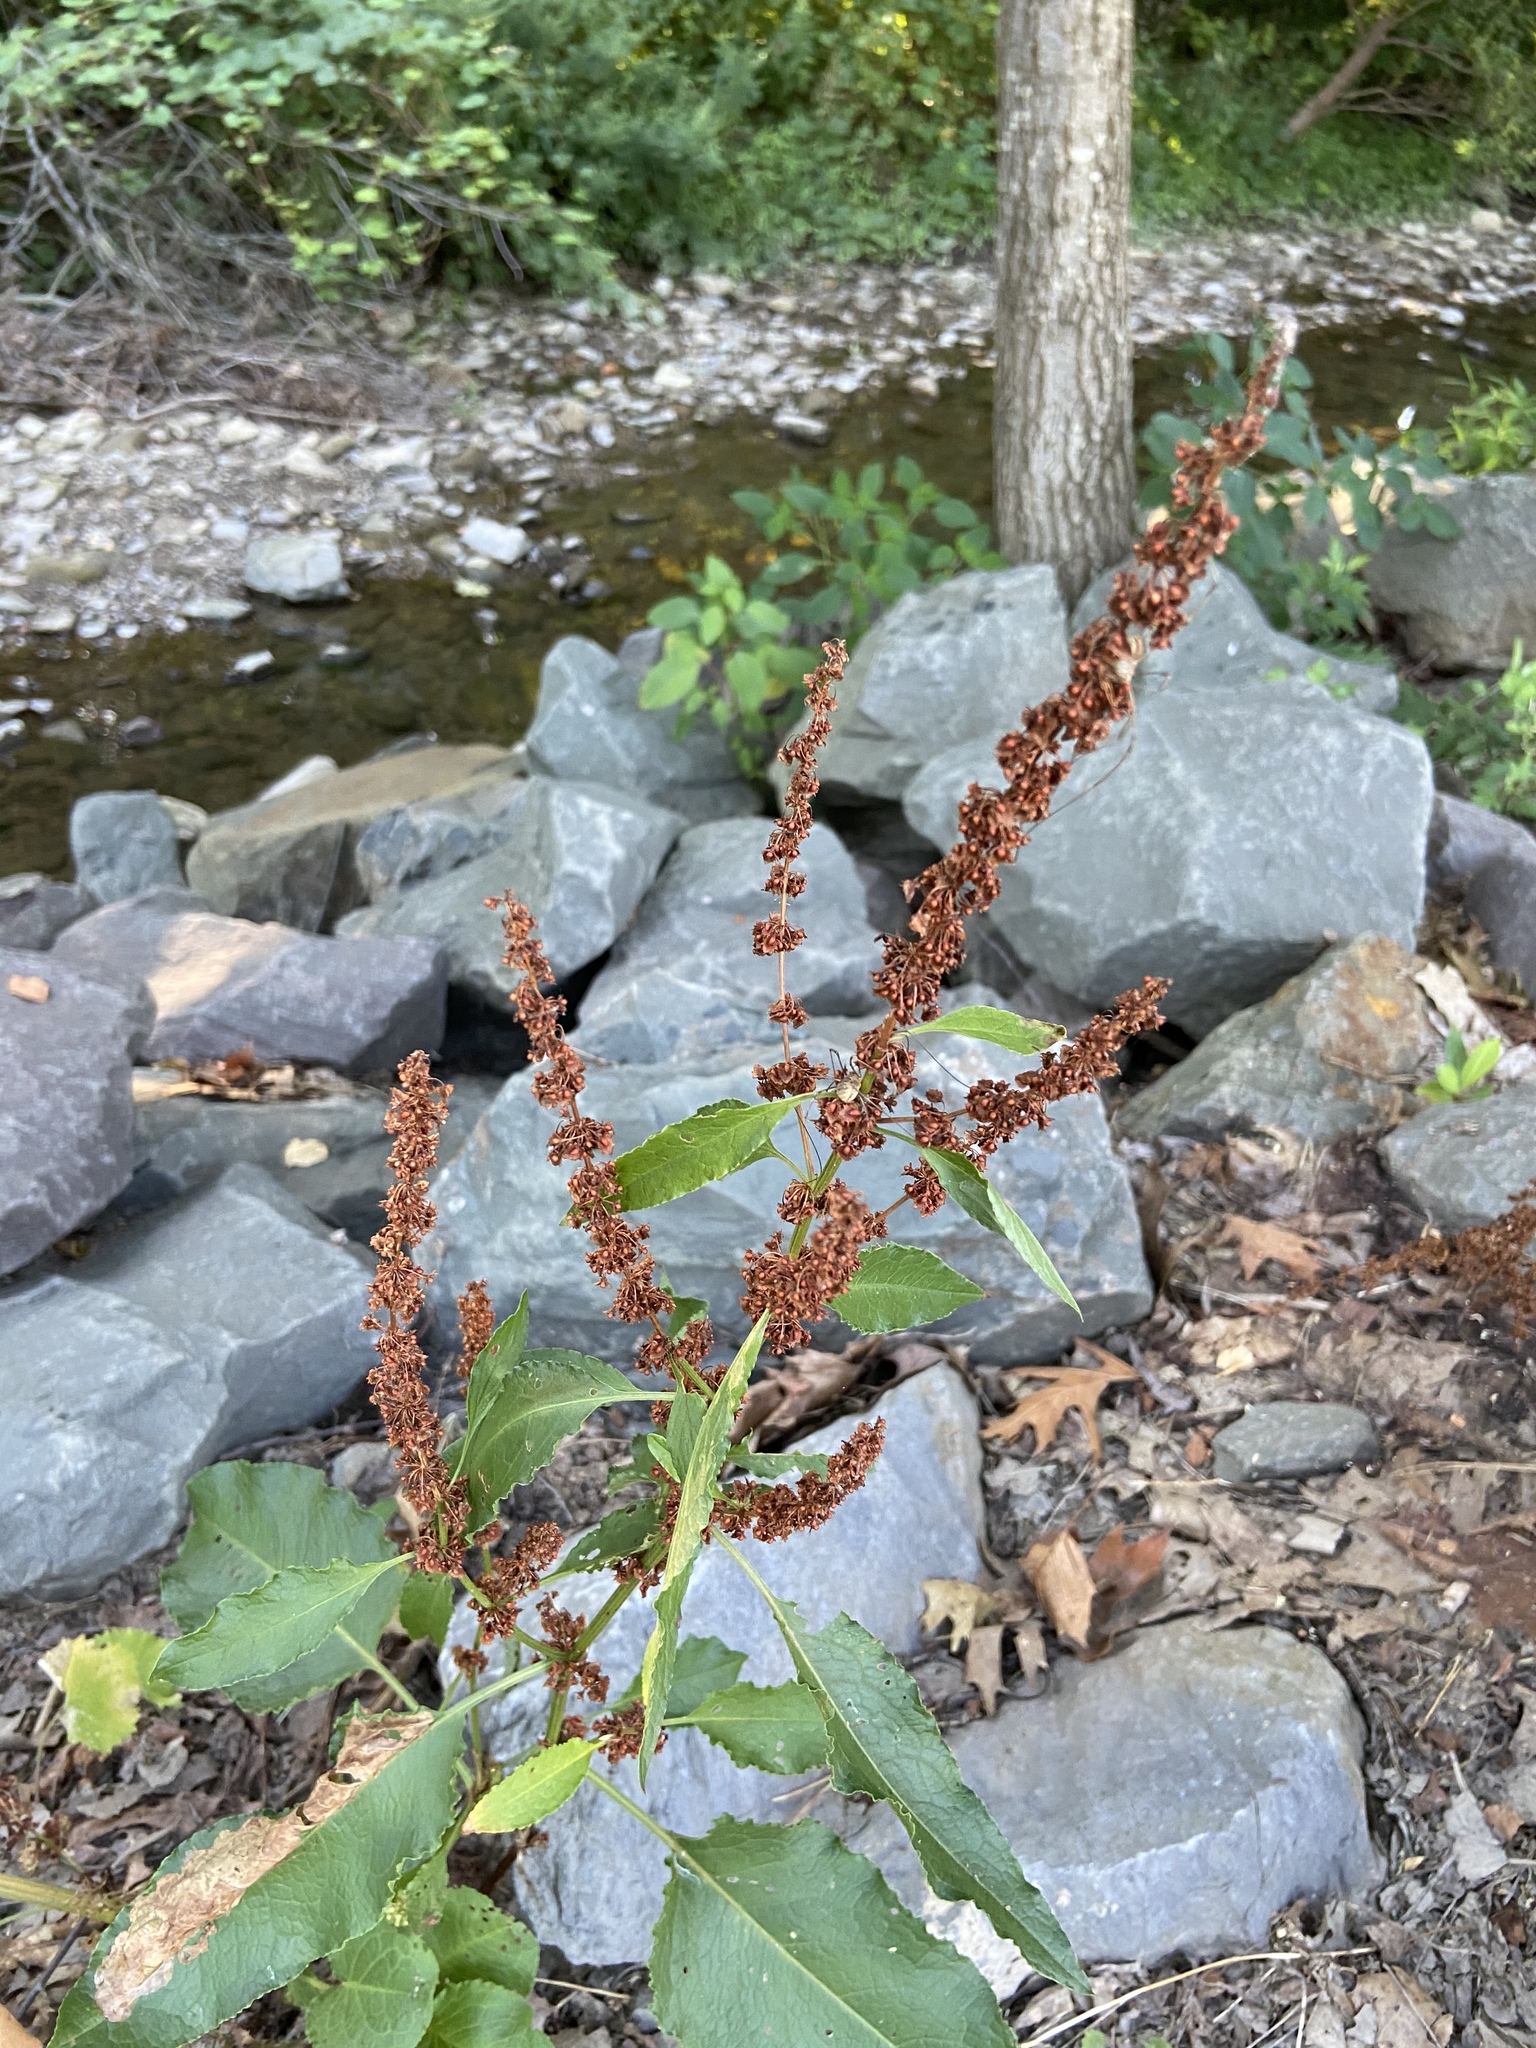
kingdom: Plantae
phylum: Tracheophyta
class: Magnoliopsida
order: Caryophyllales
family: Polygonaceae
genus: Rumex
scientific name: Rumex crispus
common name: Curled dock
